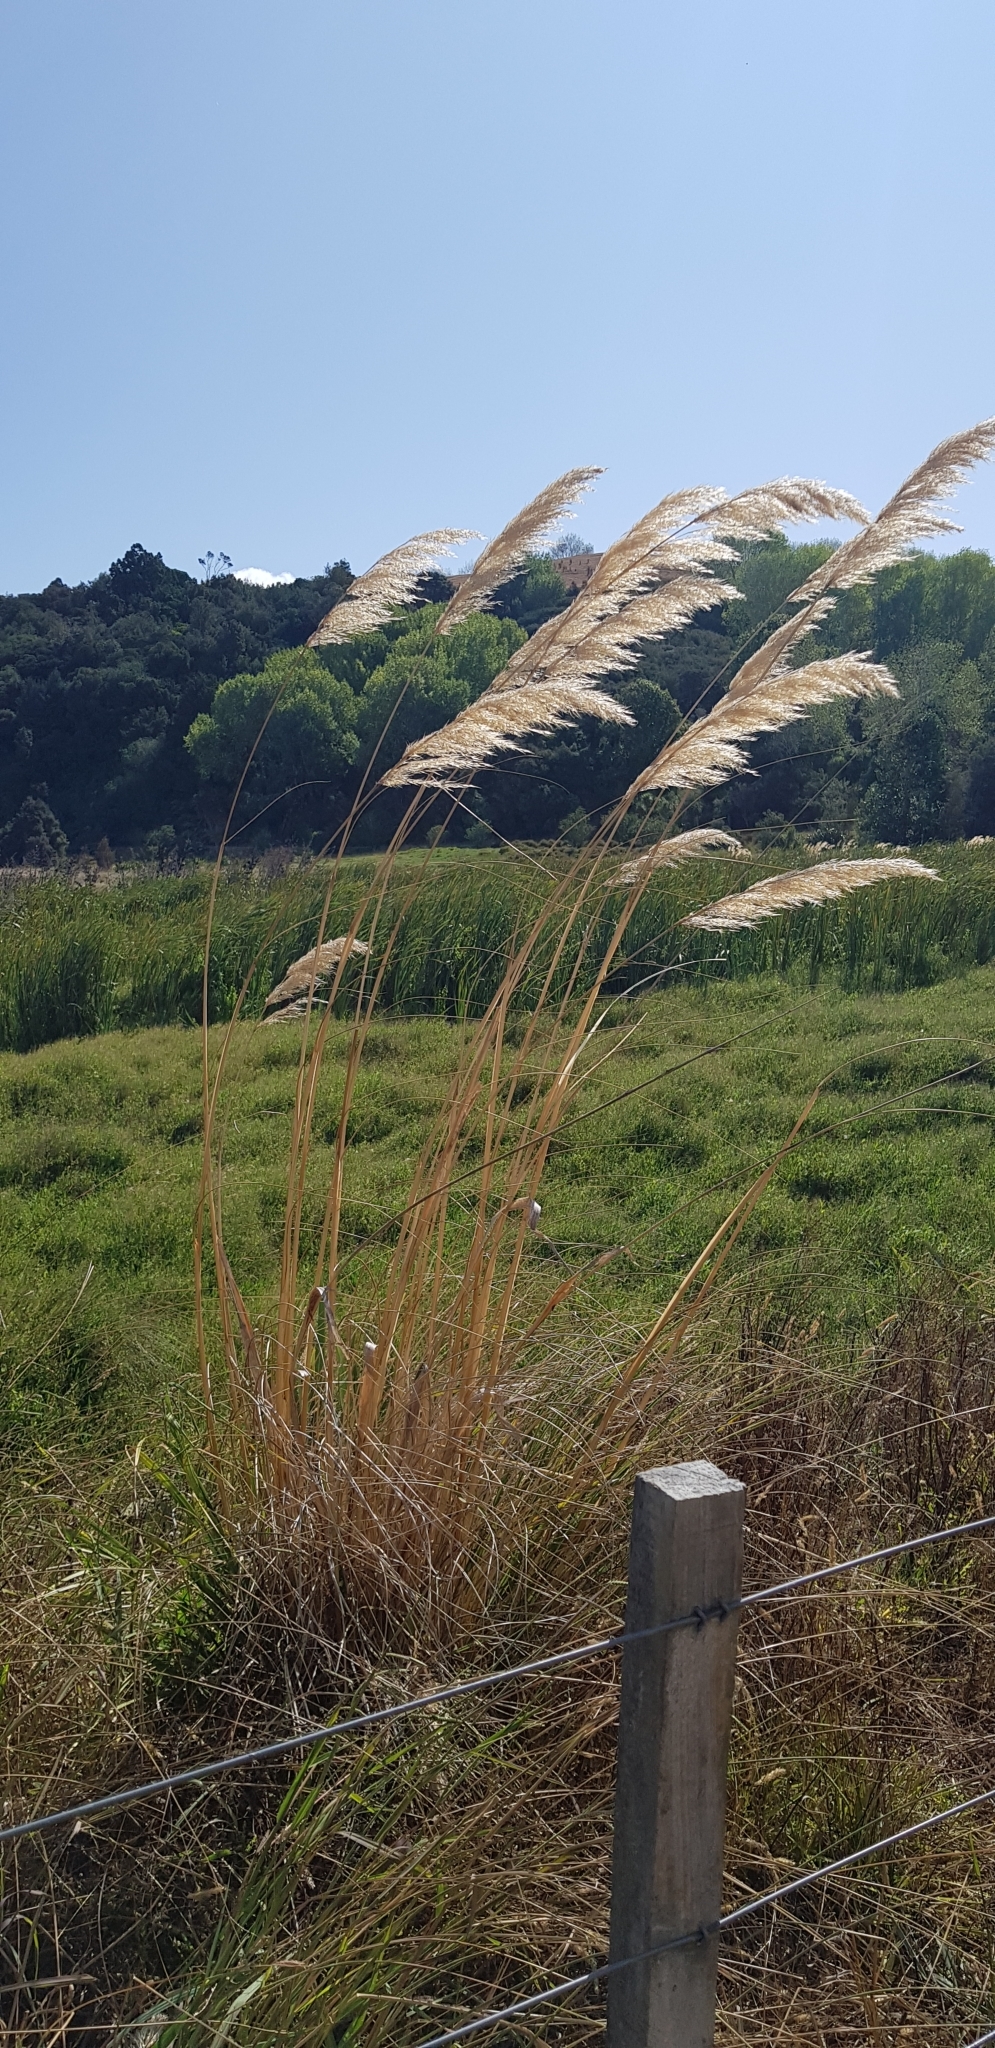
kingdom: Plantae
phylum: Tracheophyta
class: Liliopsida
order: Poales
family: Poaceae
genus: Austroderia
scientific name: Austroderia splendens
